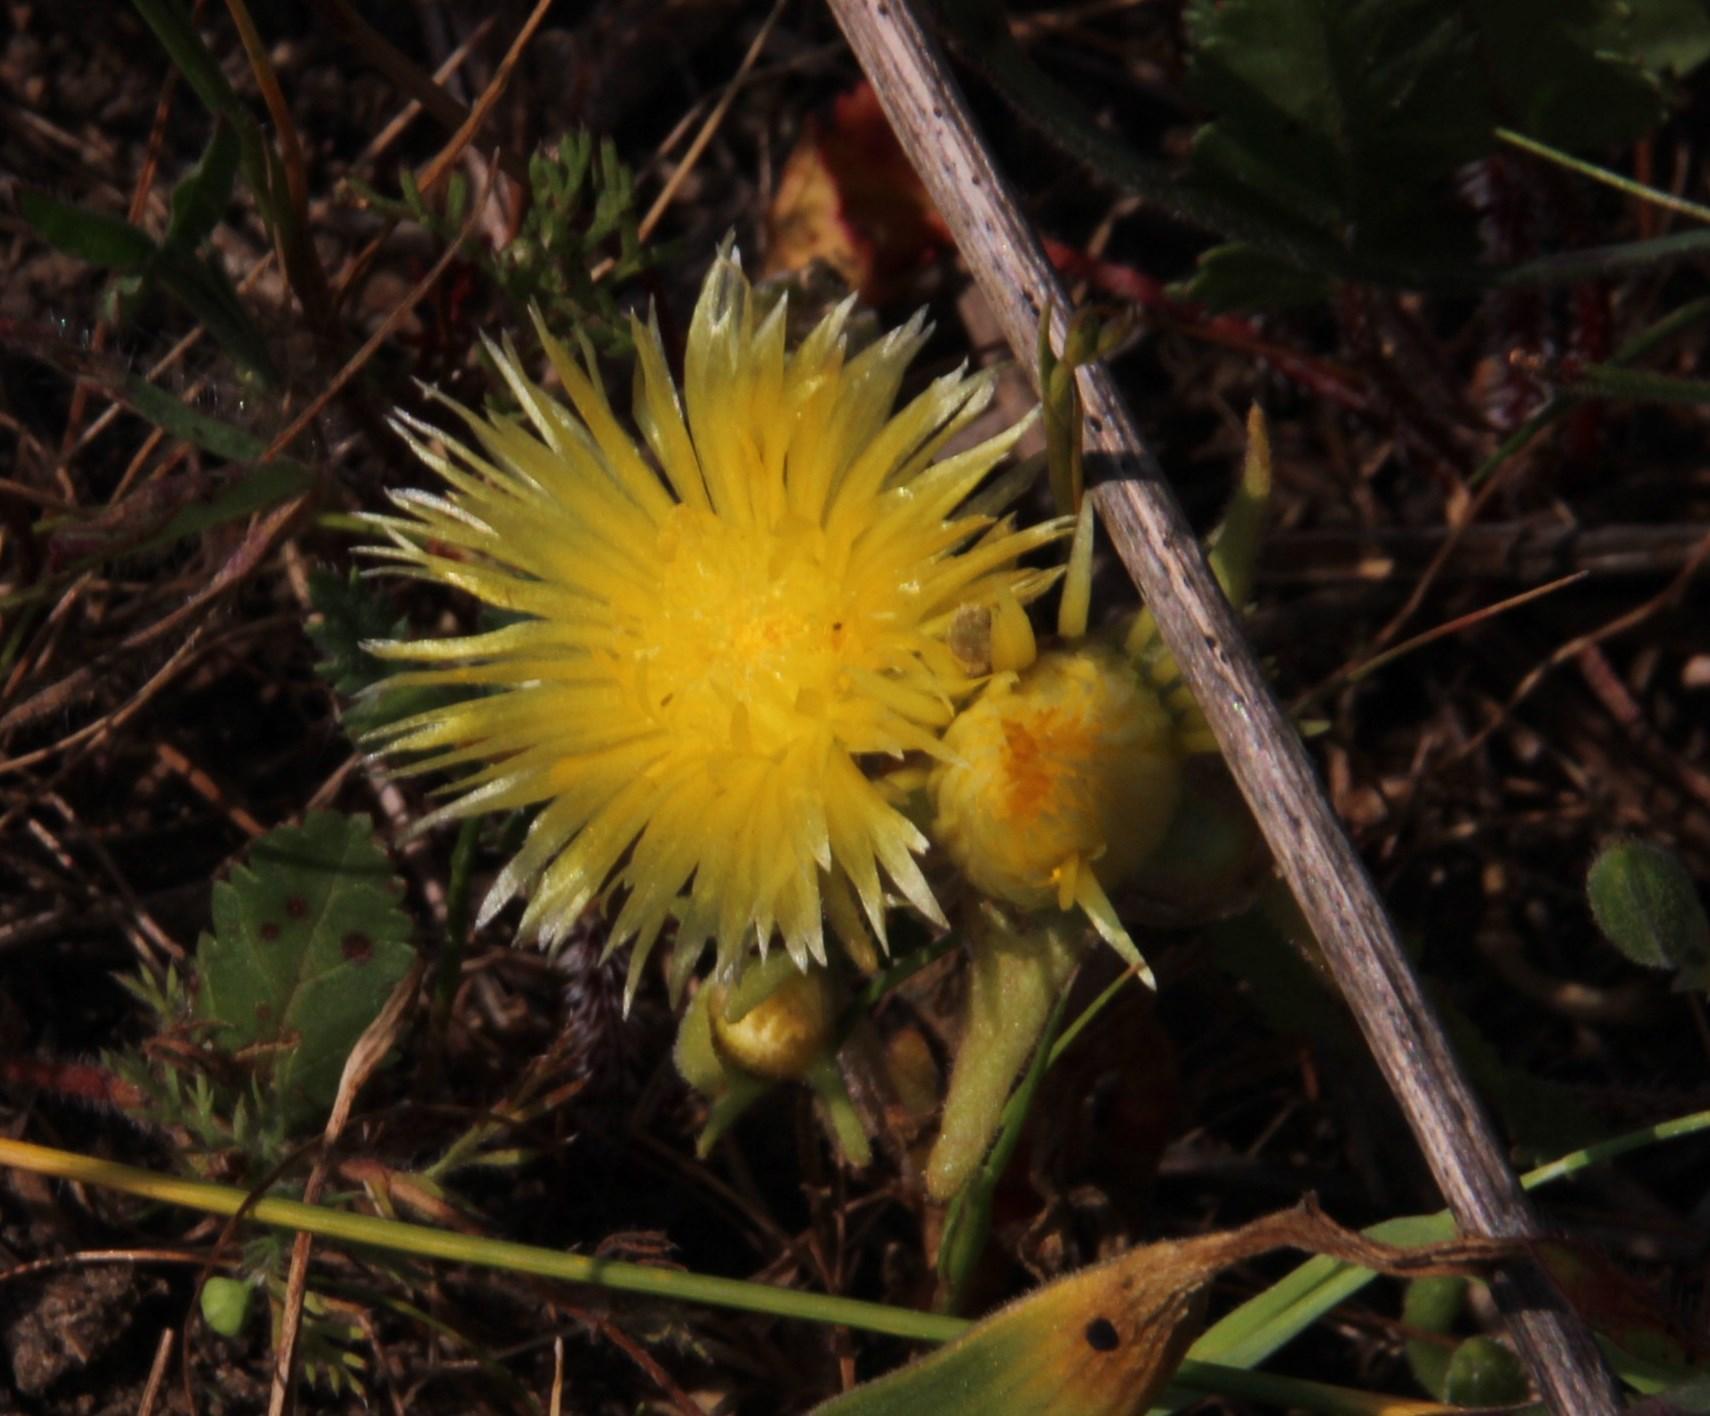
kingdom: Plantae
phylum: Tracheophyta
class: Magnoliopsida
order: Caryophyllales
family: Aizoaceae
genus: Carpanthea
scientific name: Carpanthea pomeridiana
